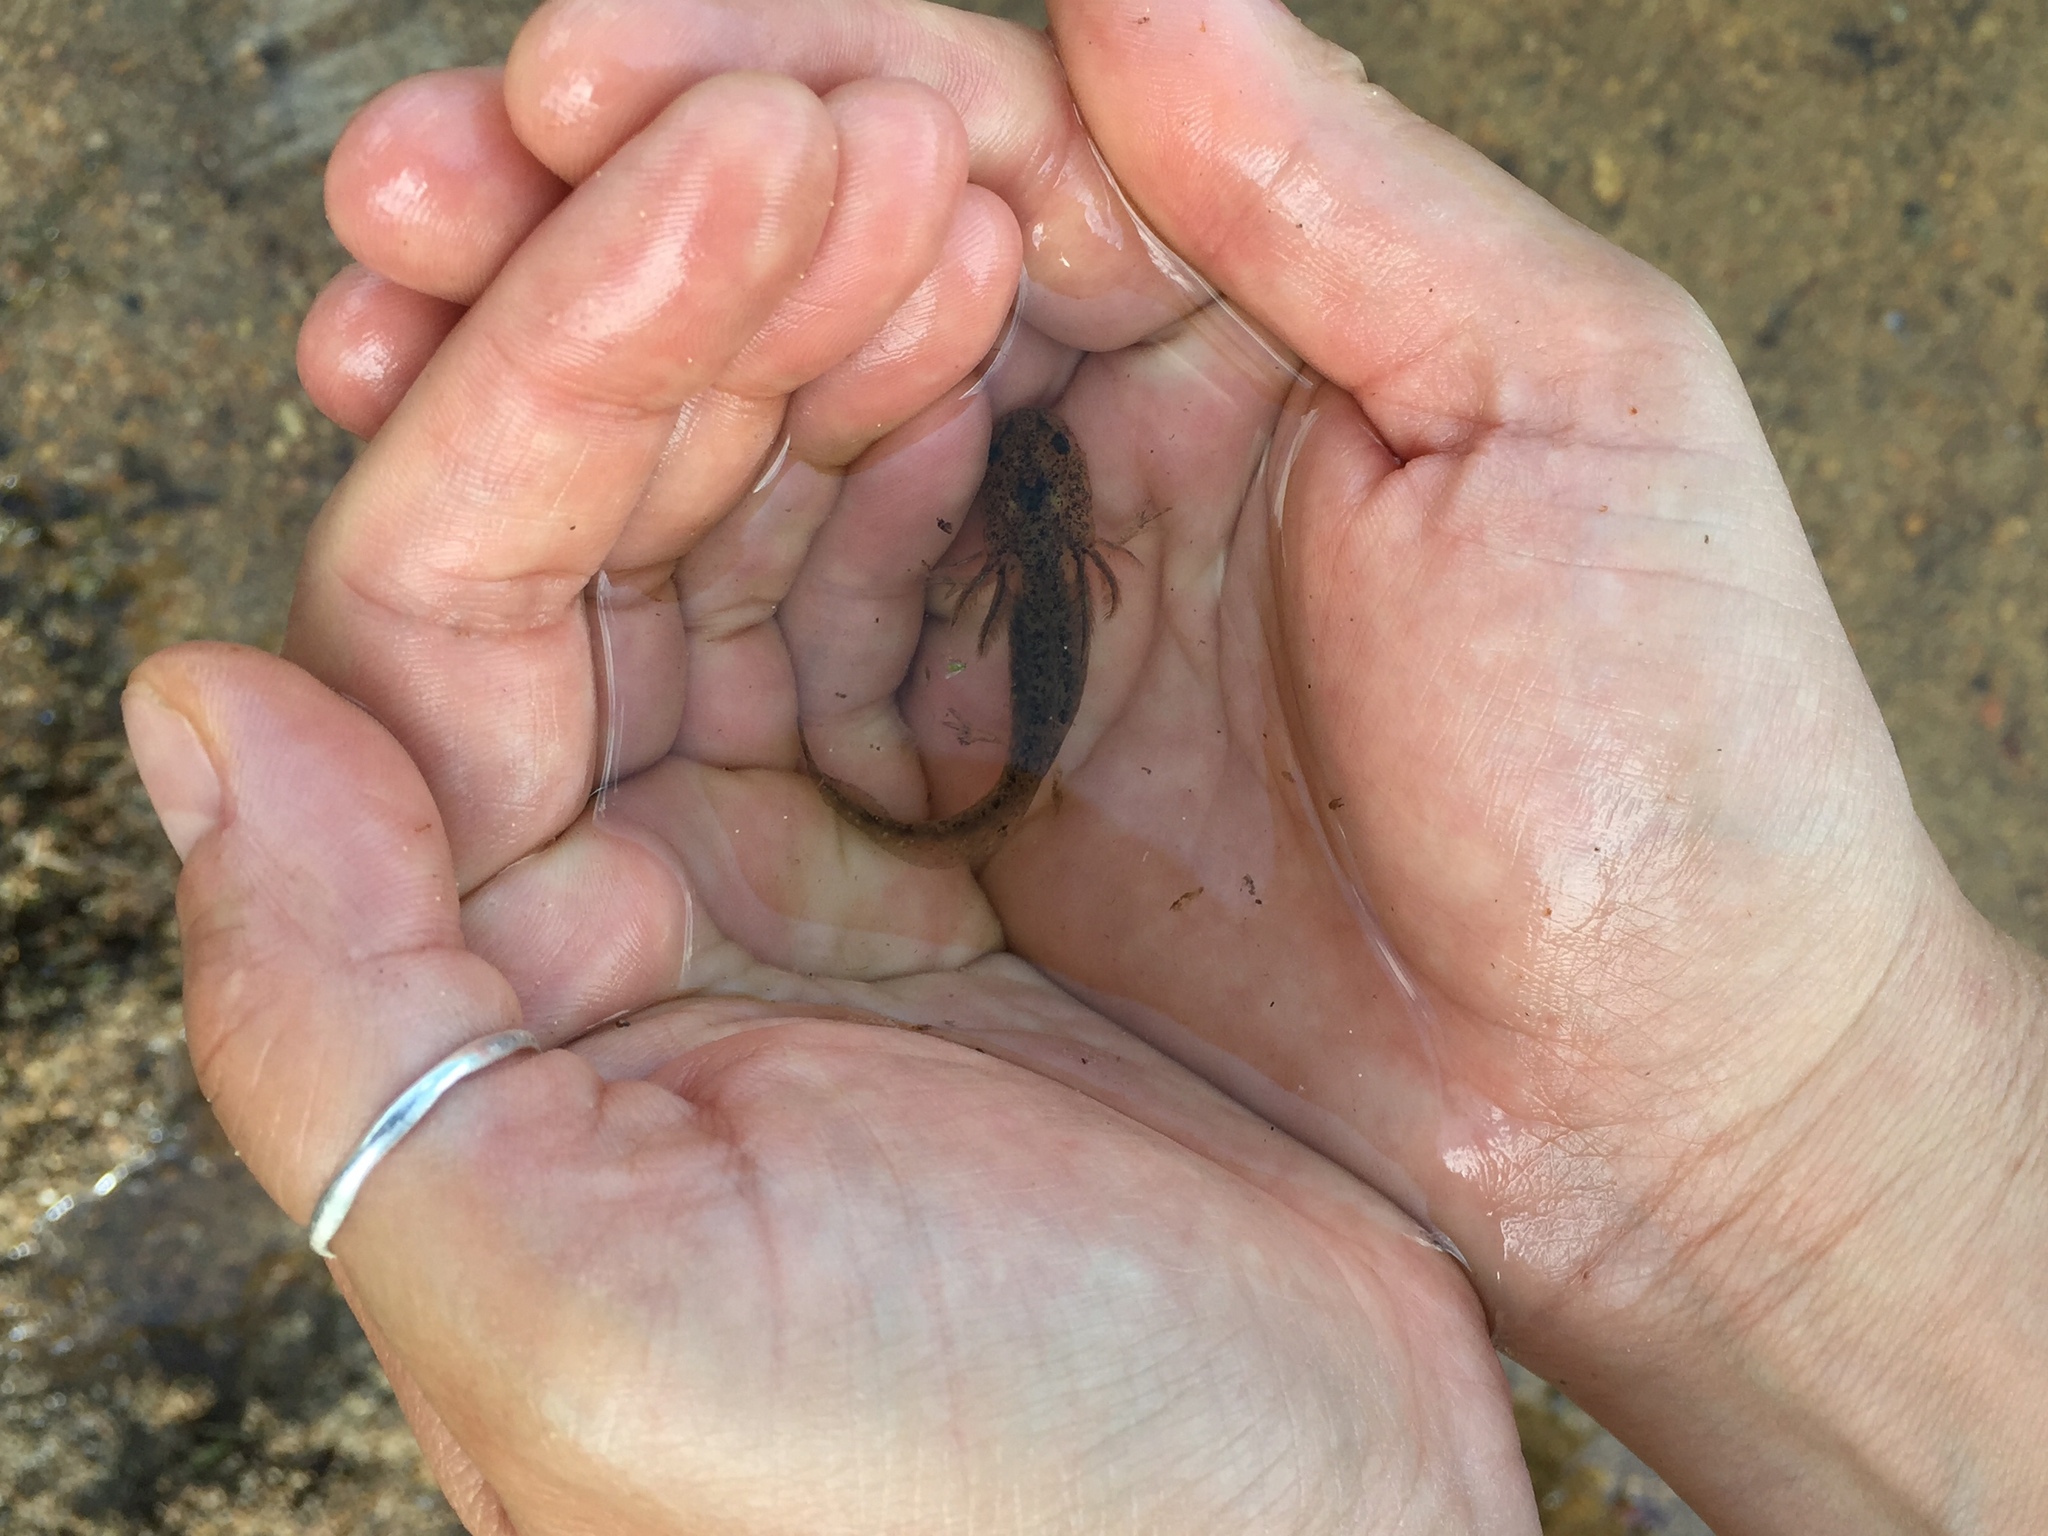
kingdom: Animalia
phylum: Chordata
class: Amphibia
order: Caudata
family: Ambystomatidae
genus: Ambystoma
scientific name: Ambystoma mavortium
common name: Western tiger salamander
